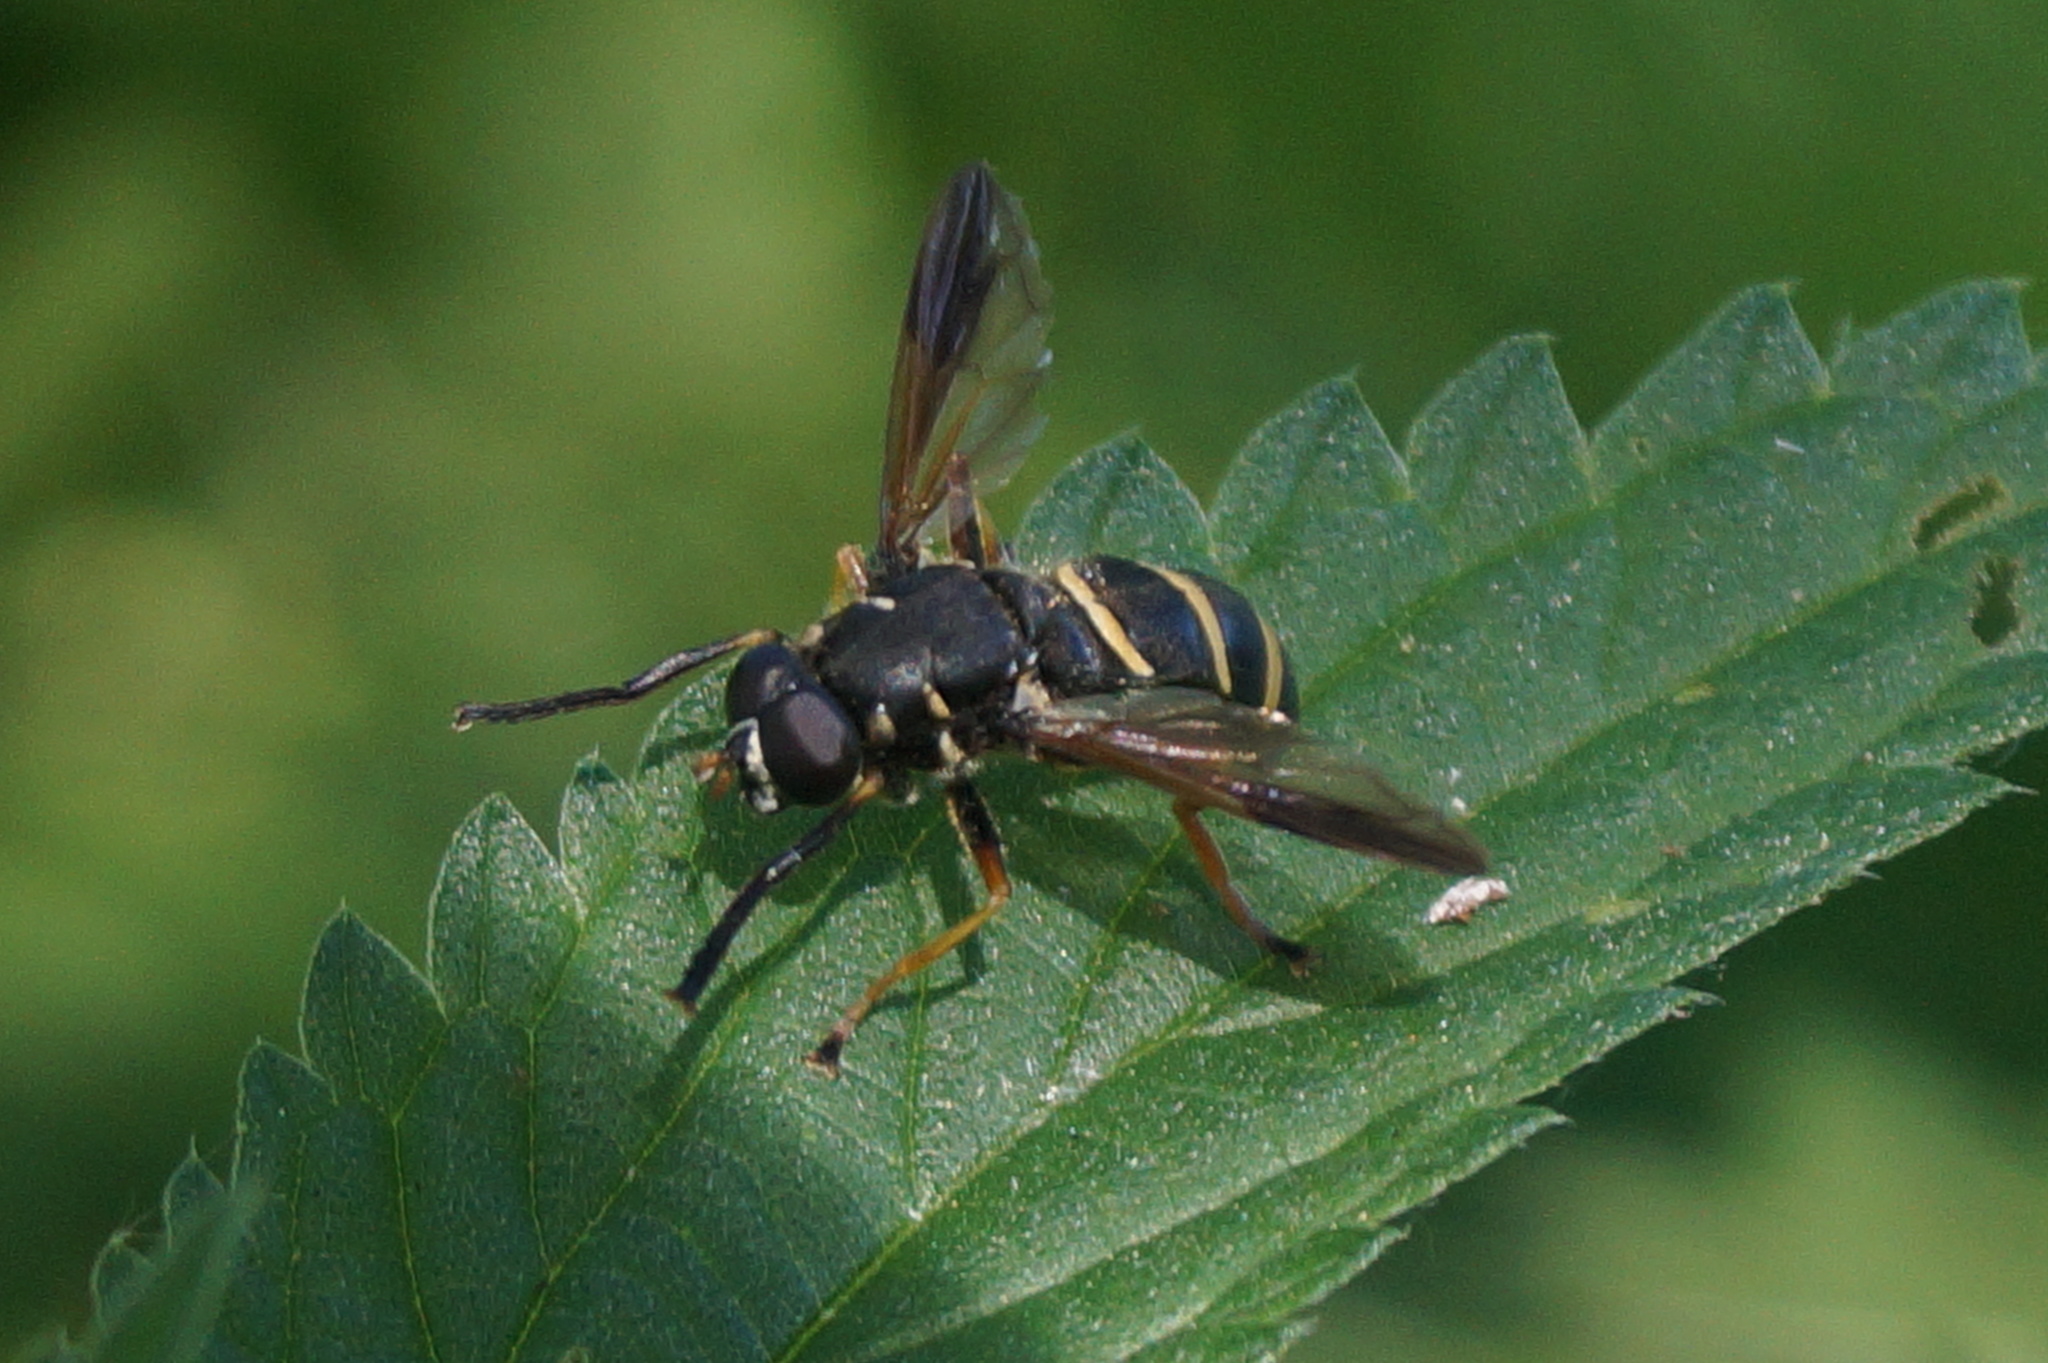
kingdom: Animalia
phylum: Arthropoda
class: Insecta
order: Diptera
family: Syrphidae
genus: Temnostoma
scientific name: Temnostoma bombylans
